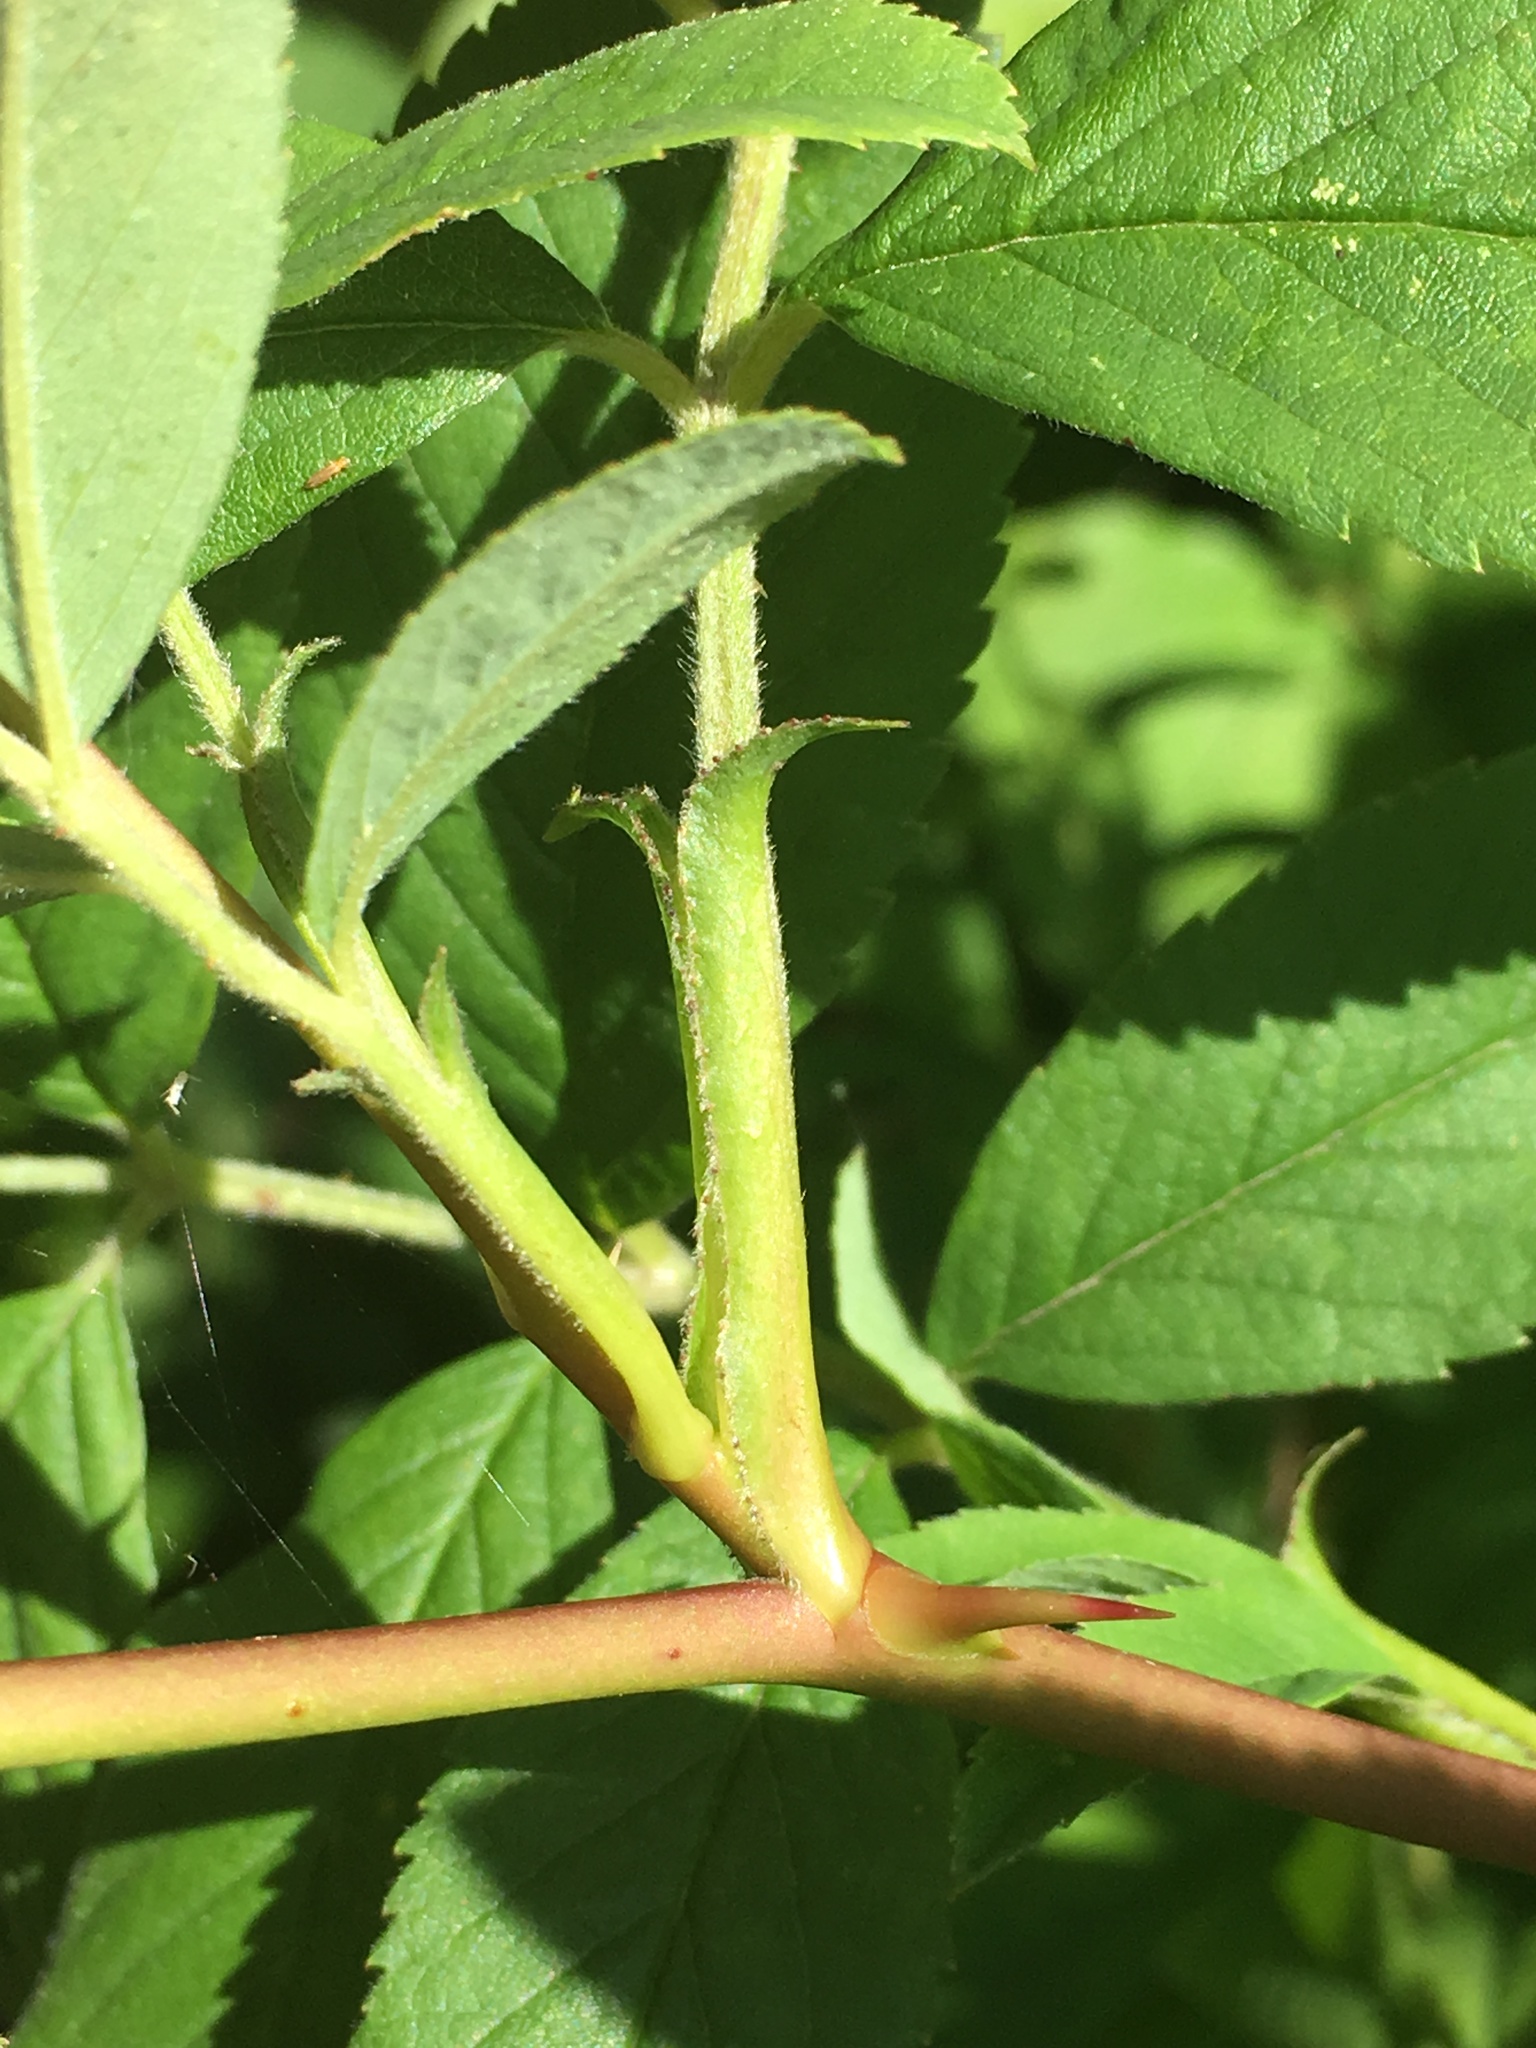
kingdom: Plantae
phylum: Tracheophyta
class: Magnoliopsida
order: Rosales
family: Rosaceae
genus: Rosa
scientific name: Rosa virginiana
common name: Virginian rose
